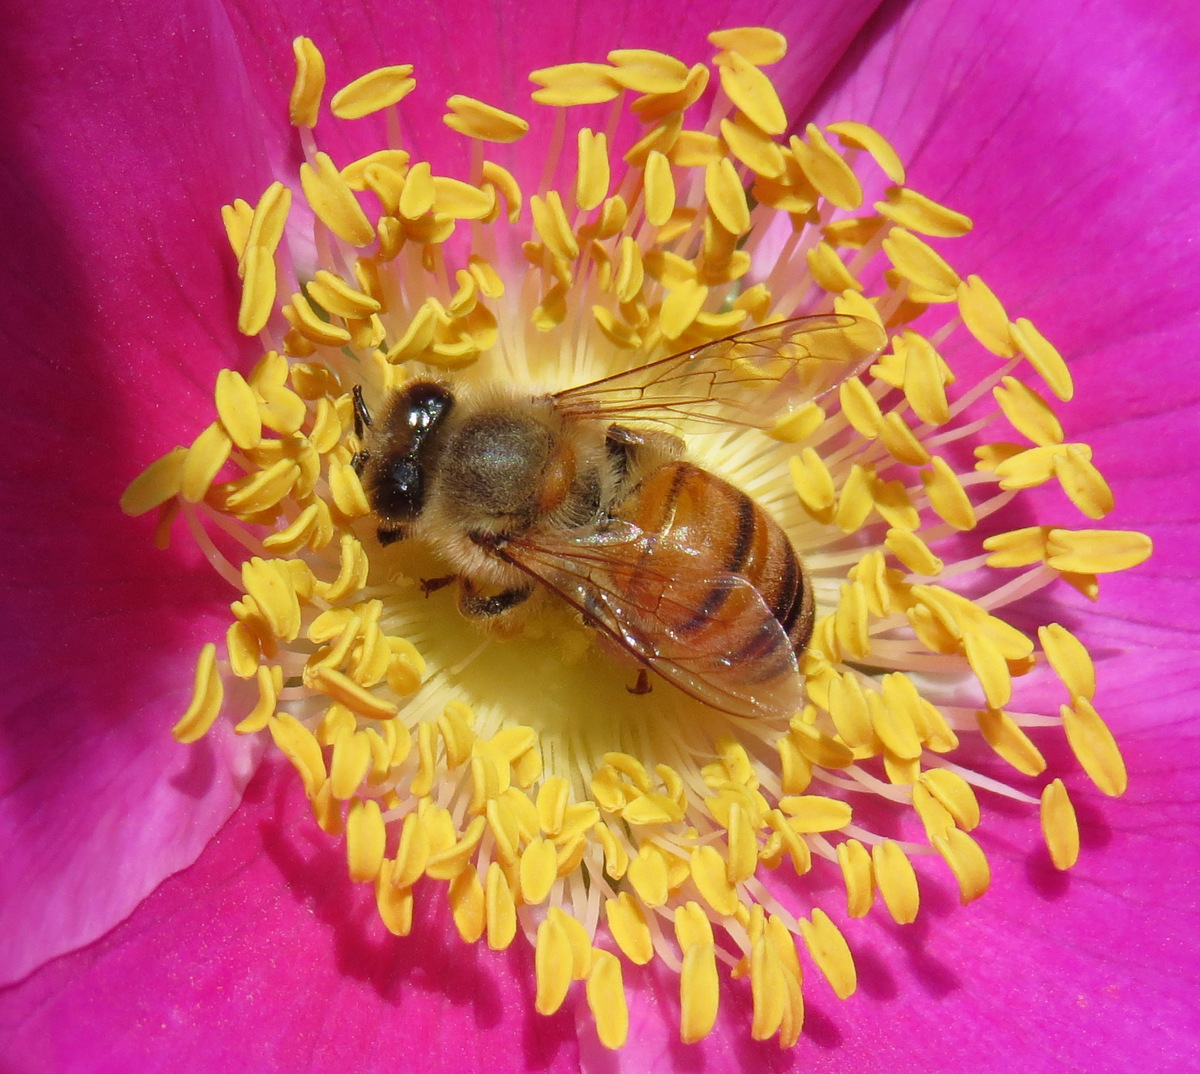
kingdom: Animalia
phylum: Arthropoda
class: Insecta
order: Hymenoptera
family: Apidae
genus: Apis
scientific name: Apis mellifera
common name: Honey bee
